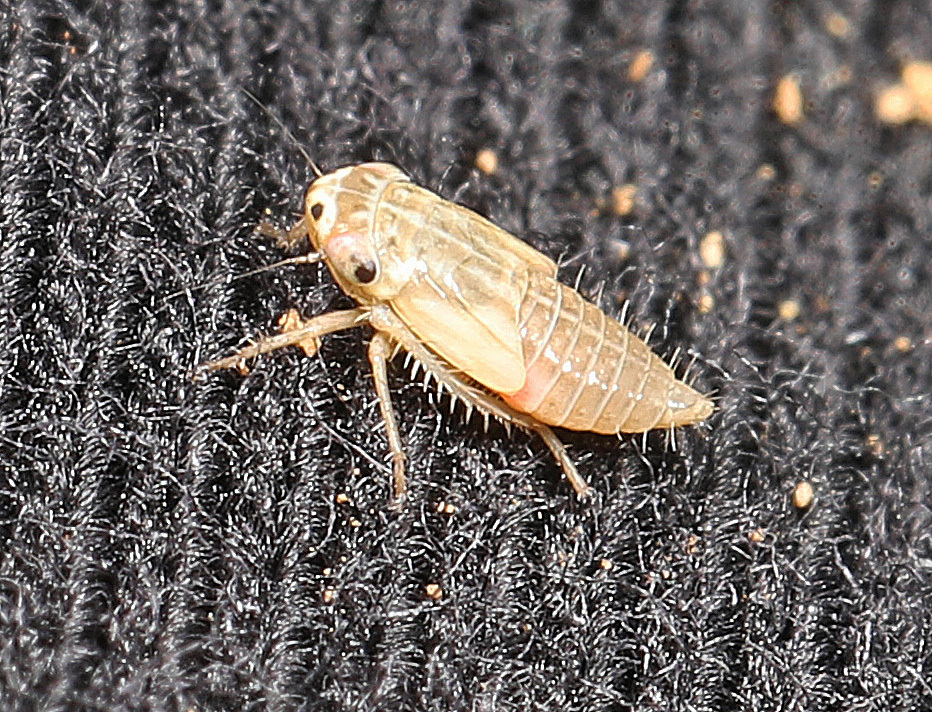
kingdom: Animalia
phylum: Arthropoda
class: Insecta
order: Hemiptera
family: Cicadellidae
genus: Exitianus
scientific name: Exitianus exitiosus
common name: Gray lawn leafhopper
